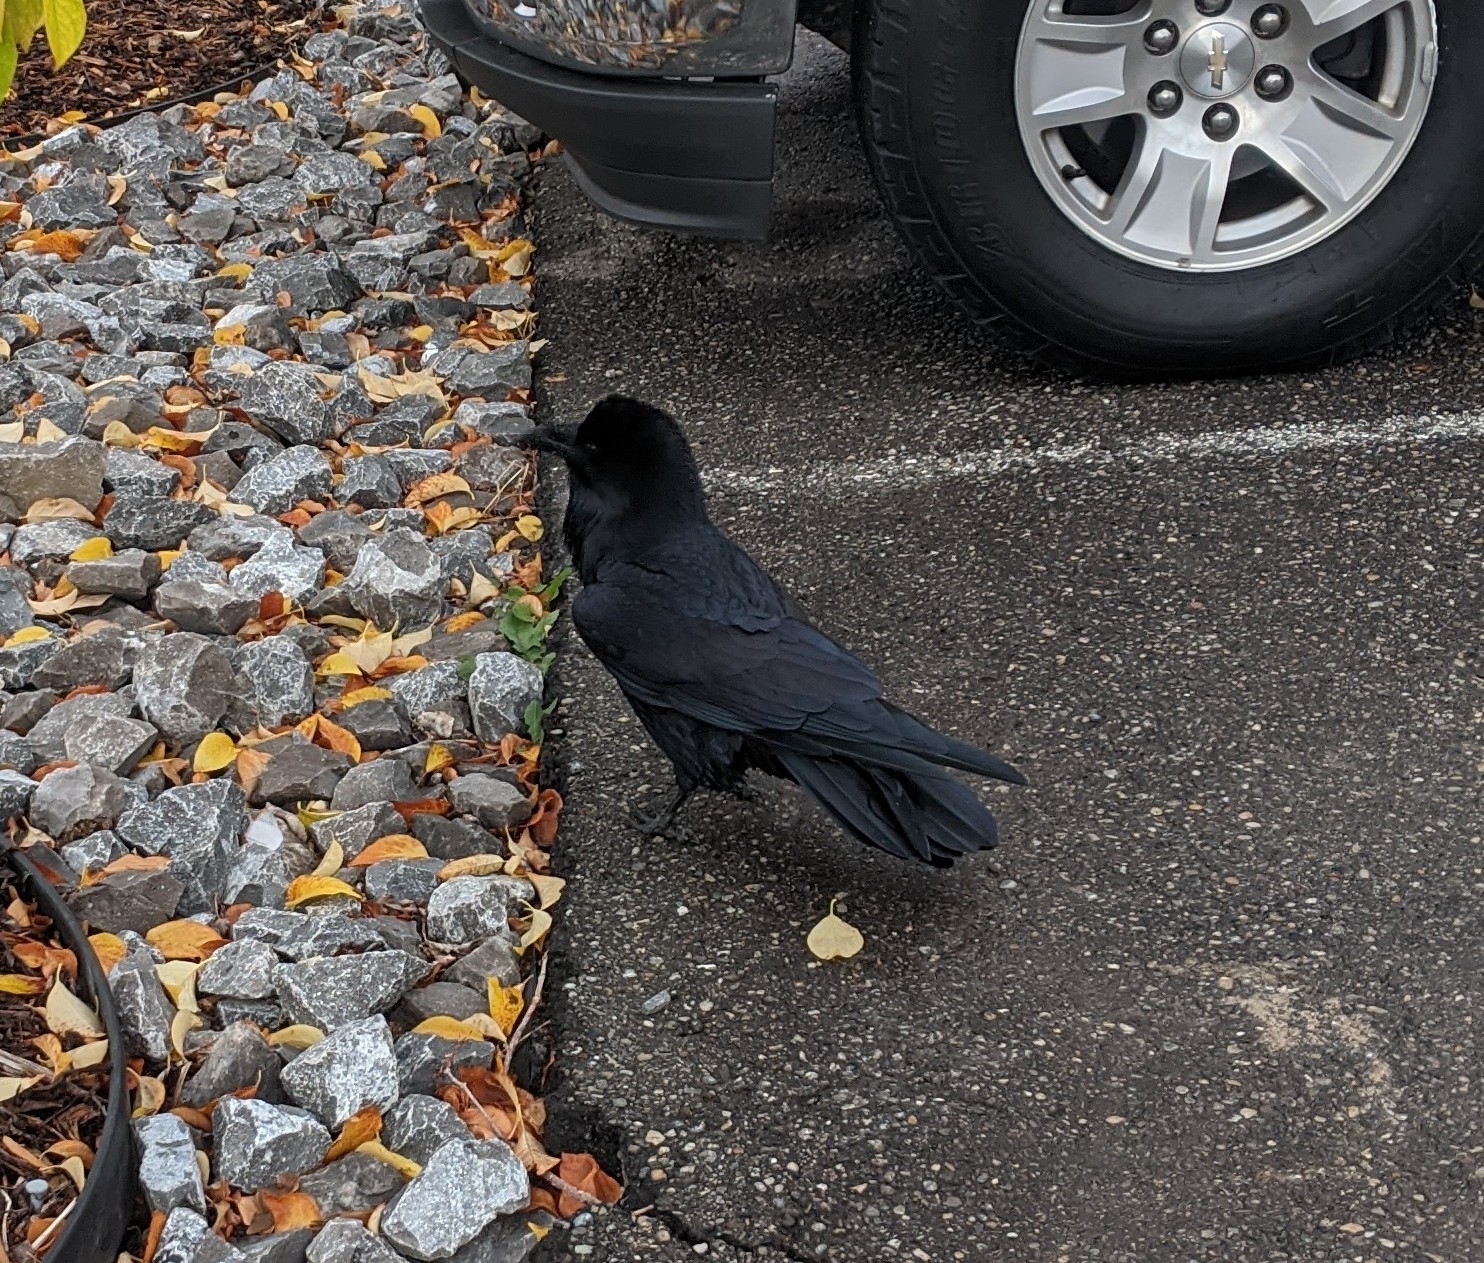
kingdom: Animalia
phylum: Chordata
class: Aves
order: Passeriformes
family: Corvidae
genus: Corvus
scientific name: Corvus corax
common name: Common raven
